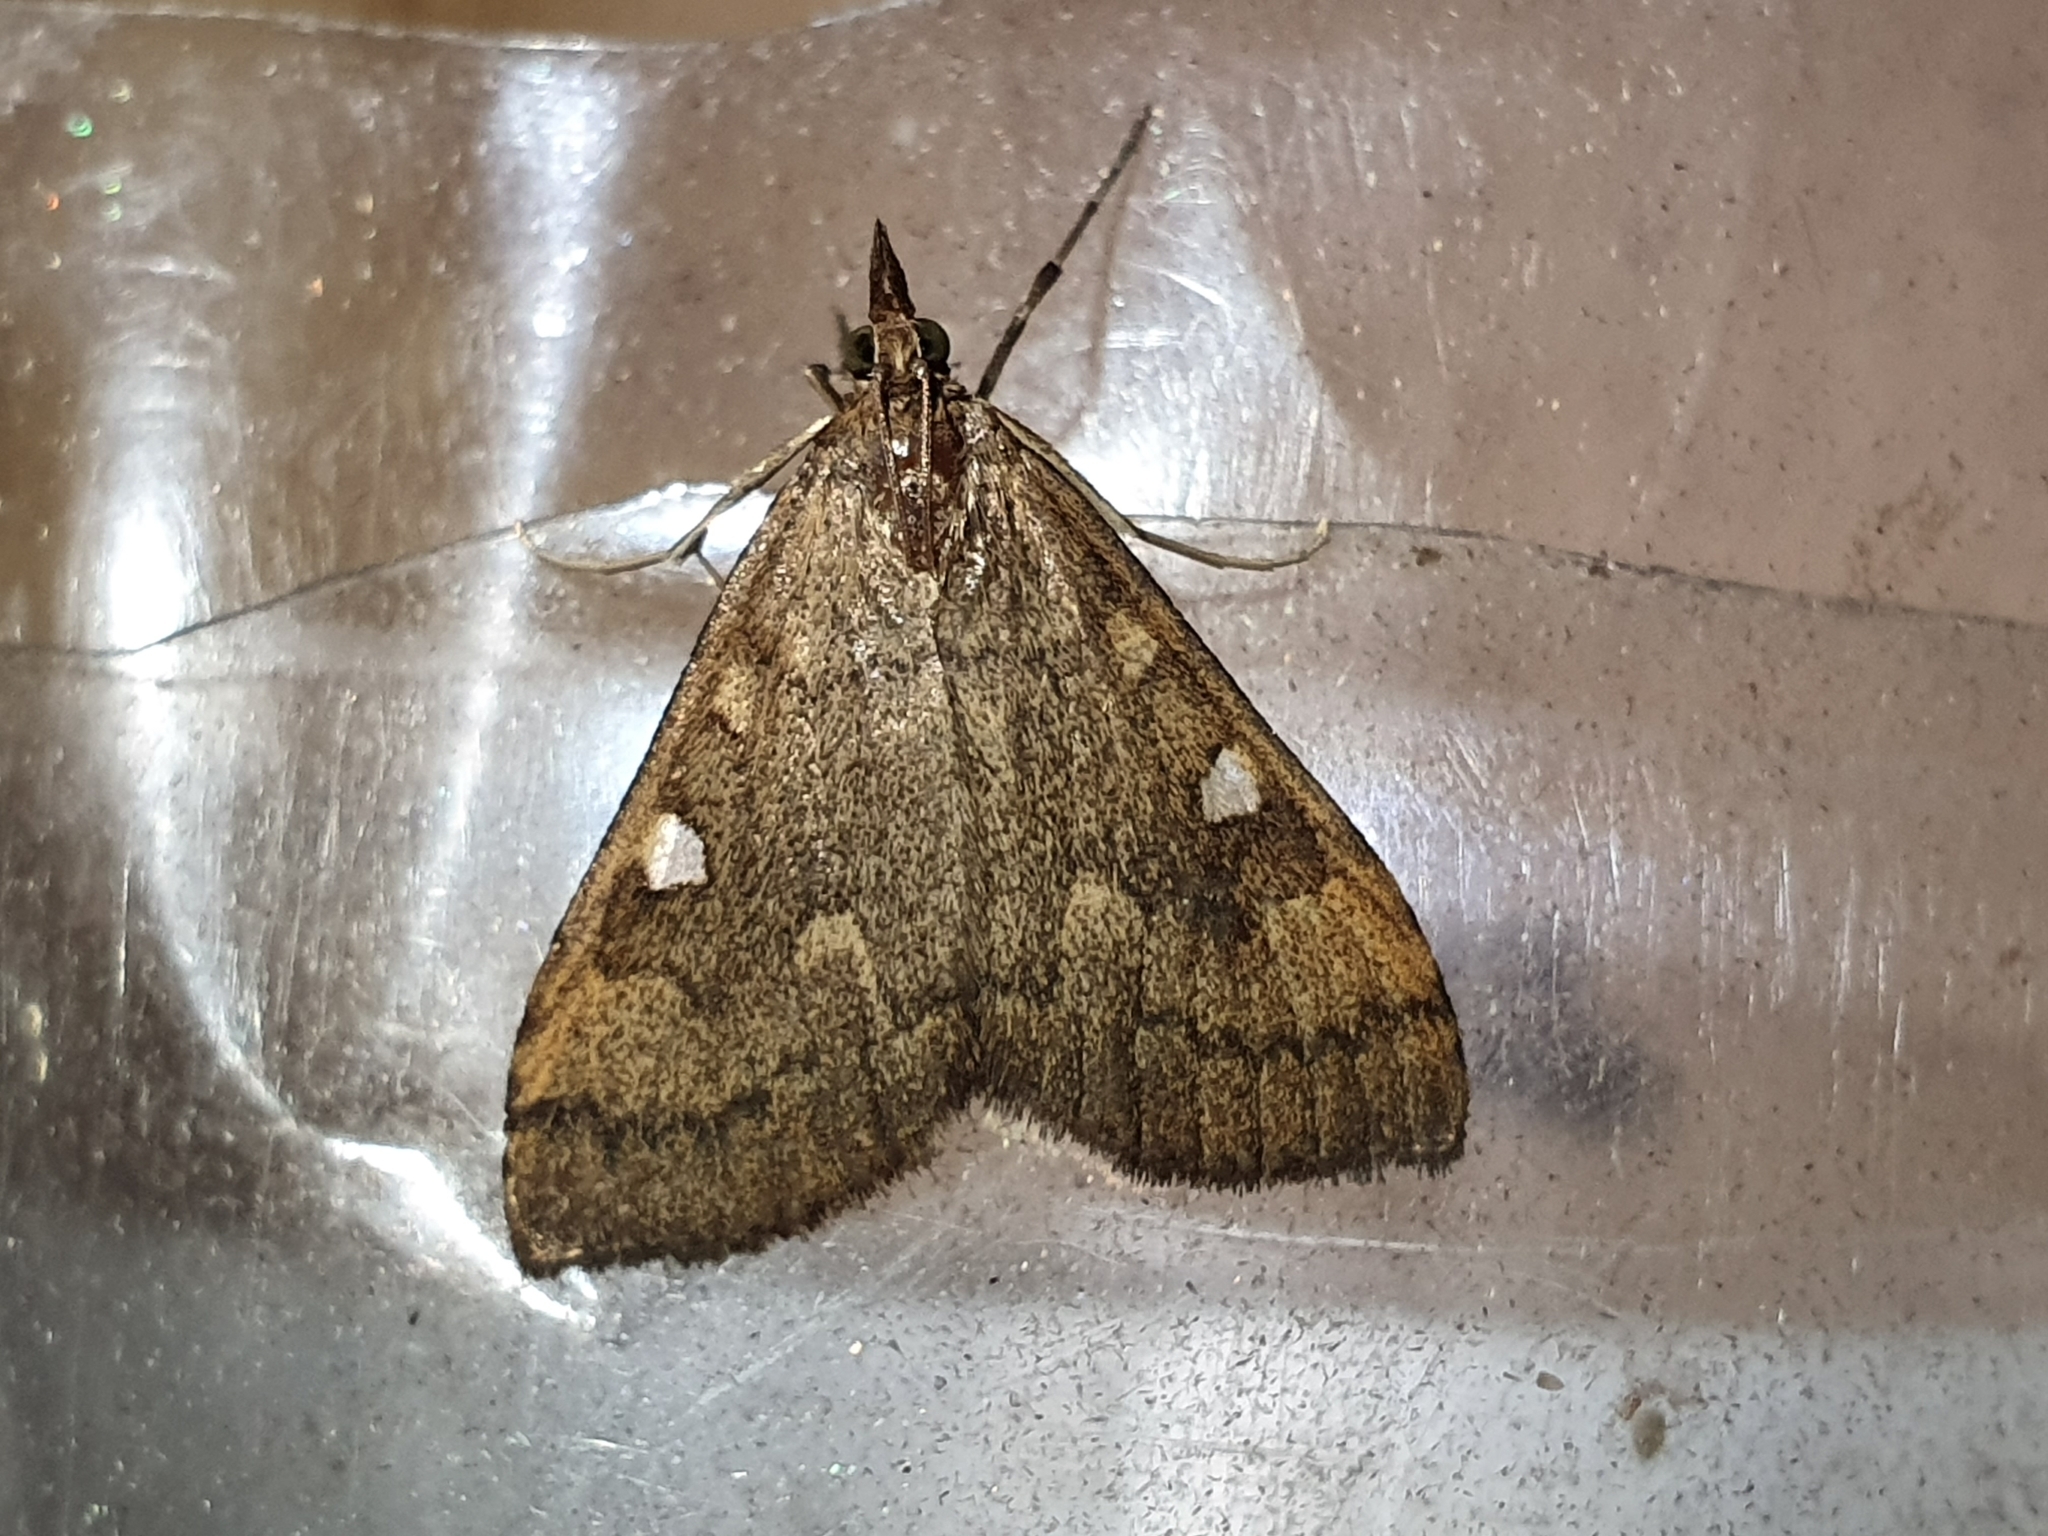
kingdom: Animalia
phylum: Arthropoda
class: Insecta
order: Lepidoptera
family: Crambidae
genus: Udea
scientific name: Udea Mnesictena marmarina
